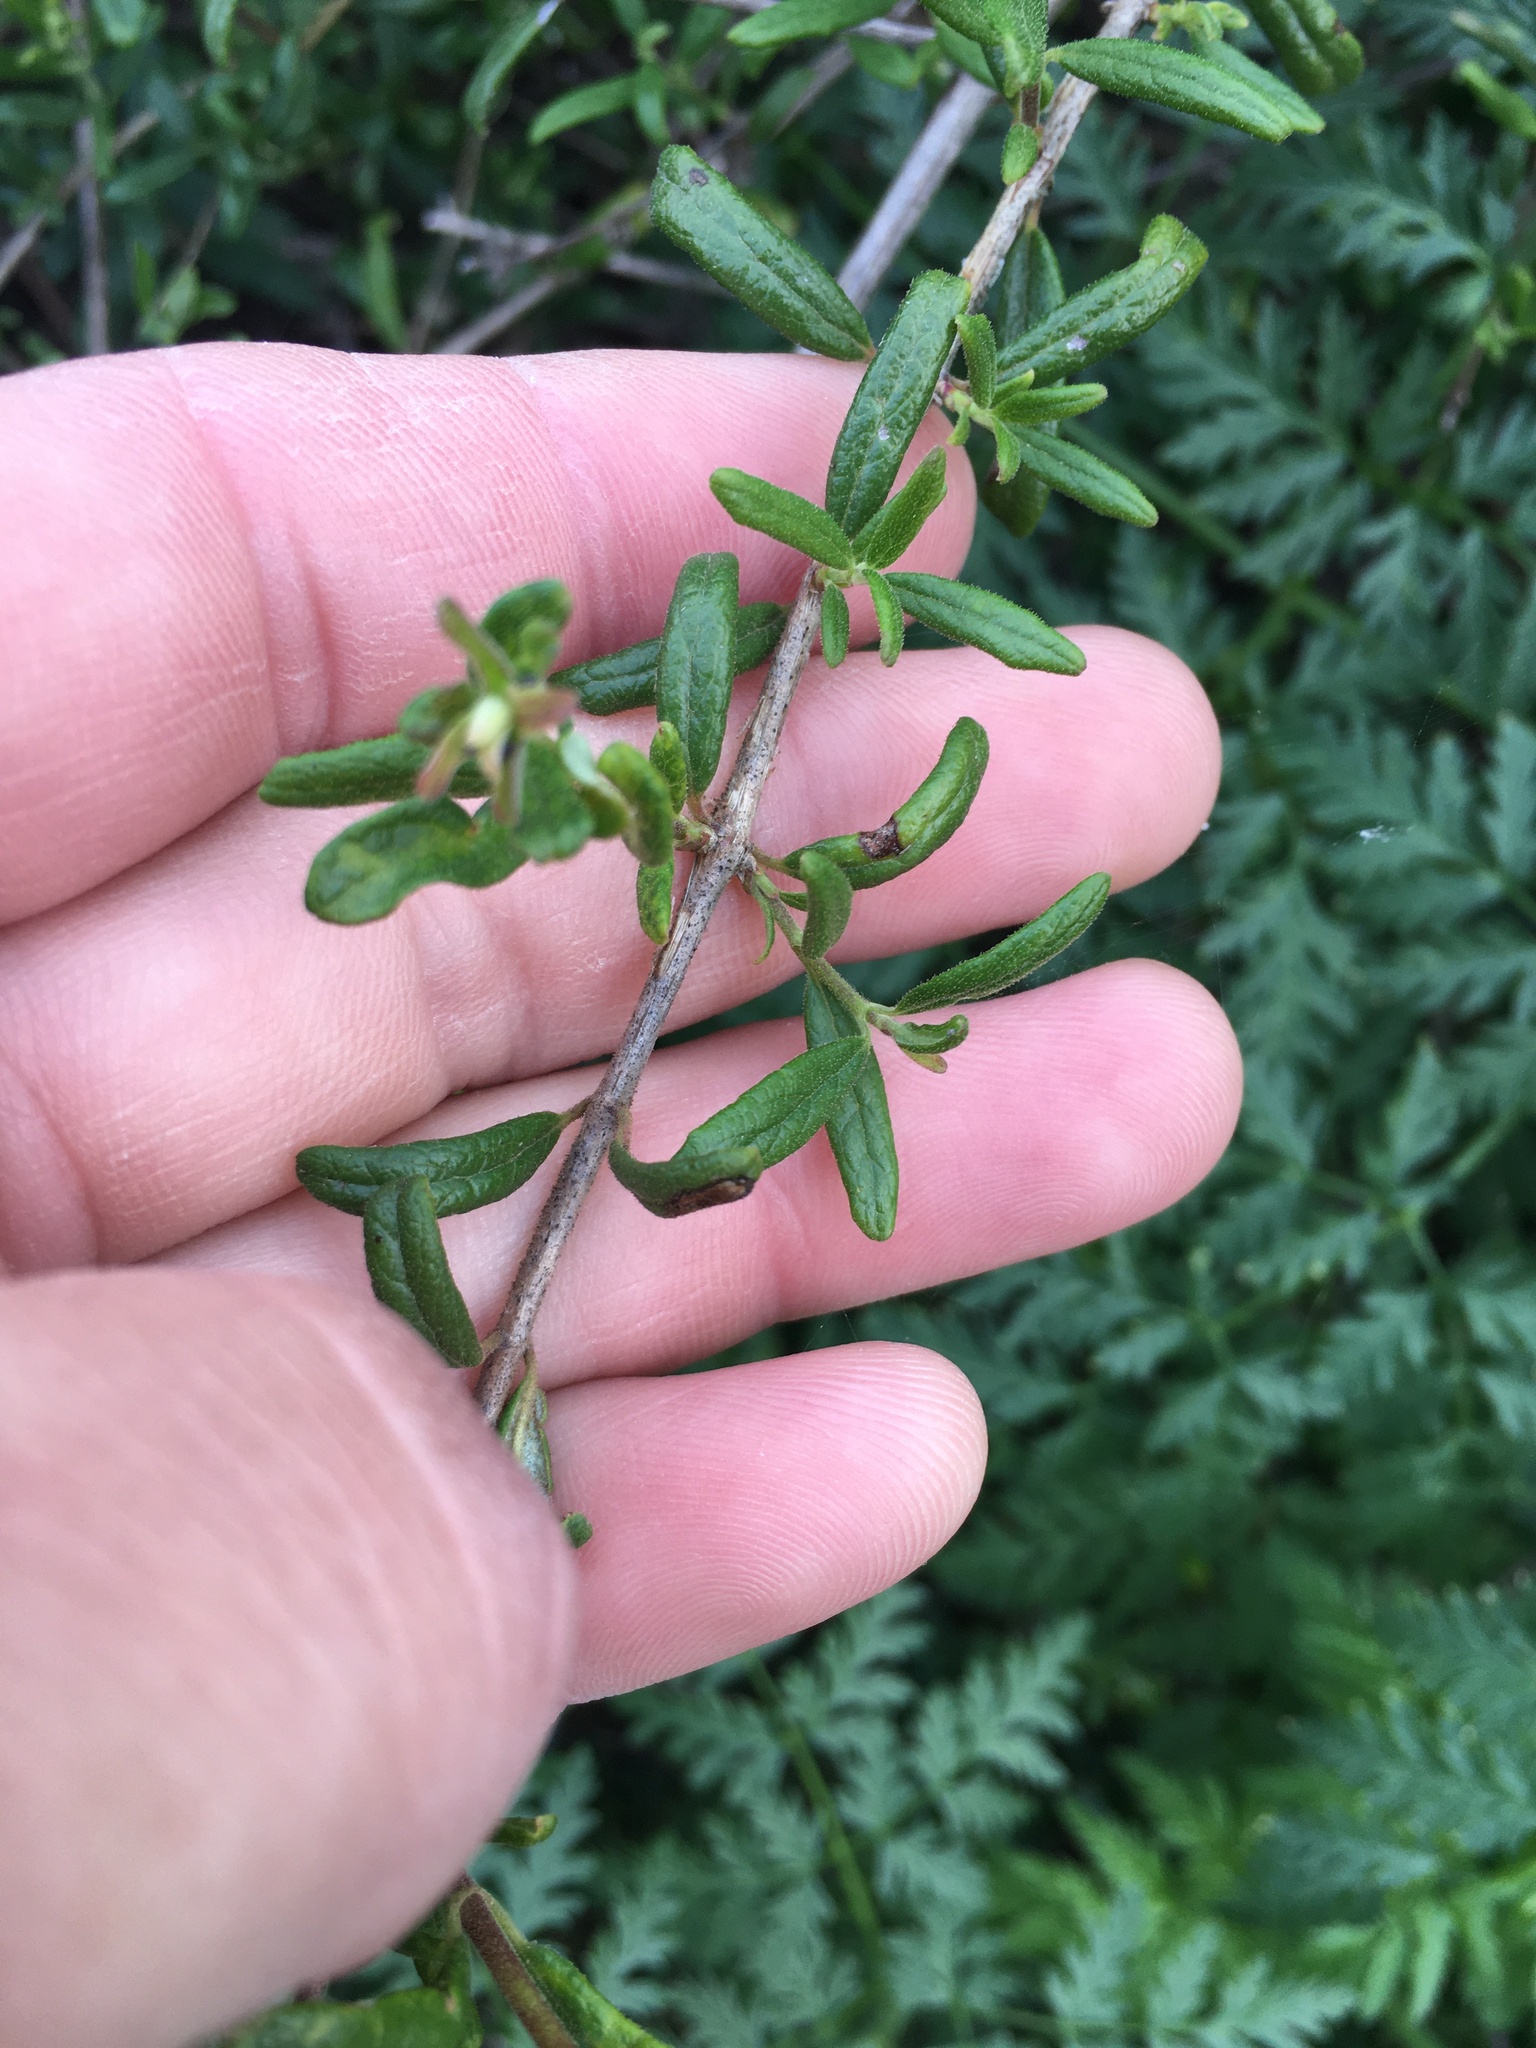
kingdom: Plantae
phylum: Tracheophyta
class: Magnoliopsida
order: Dipsacales
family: Caprifoliaceae
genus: Lonicera
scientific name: Lonicera subspicata
